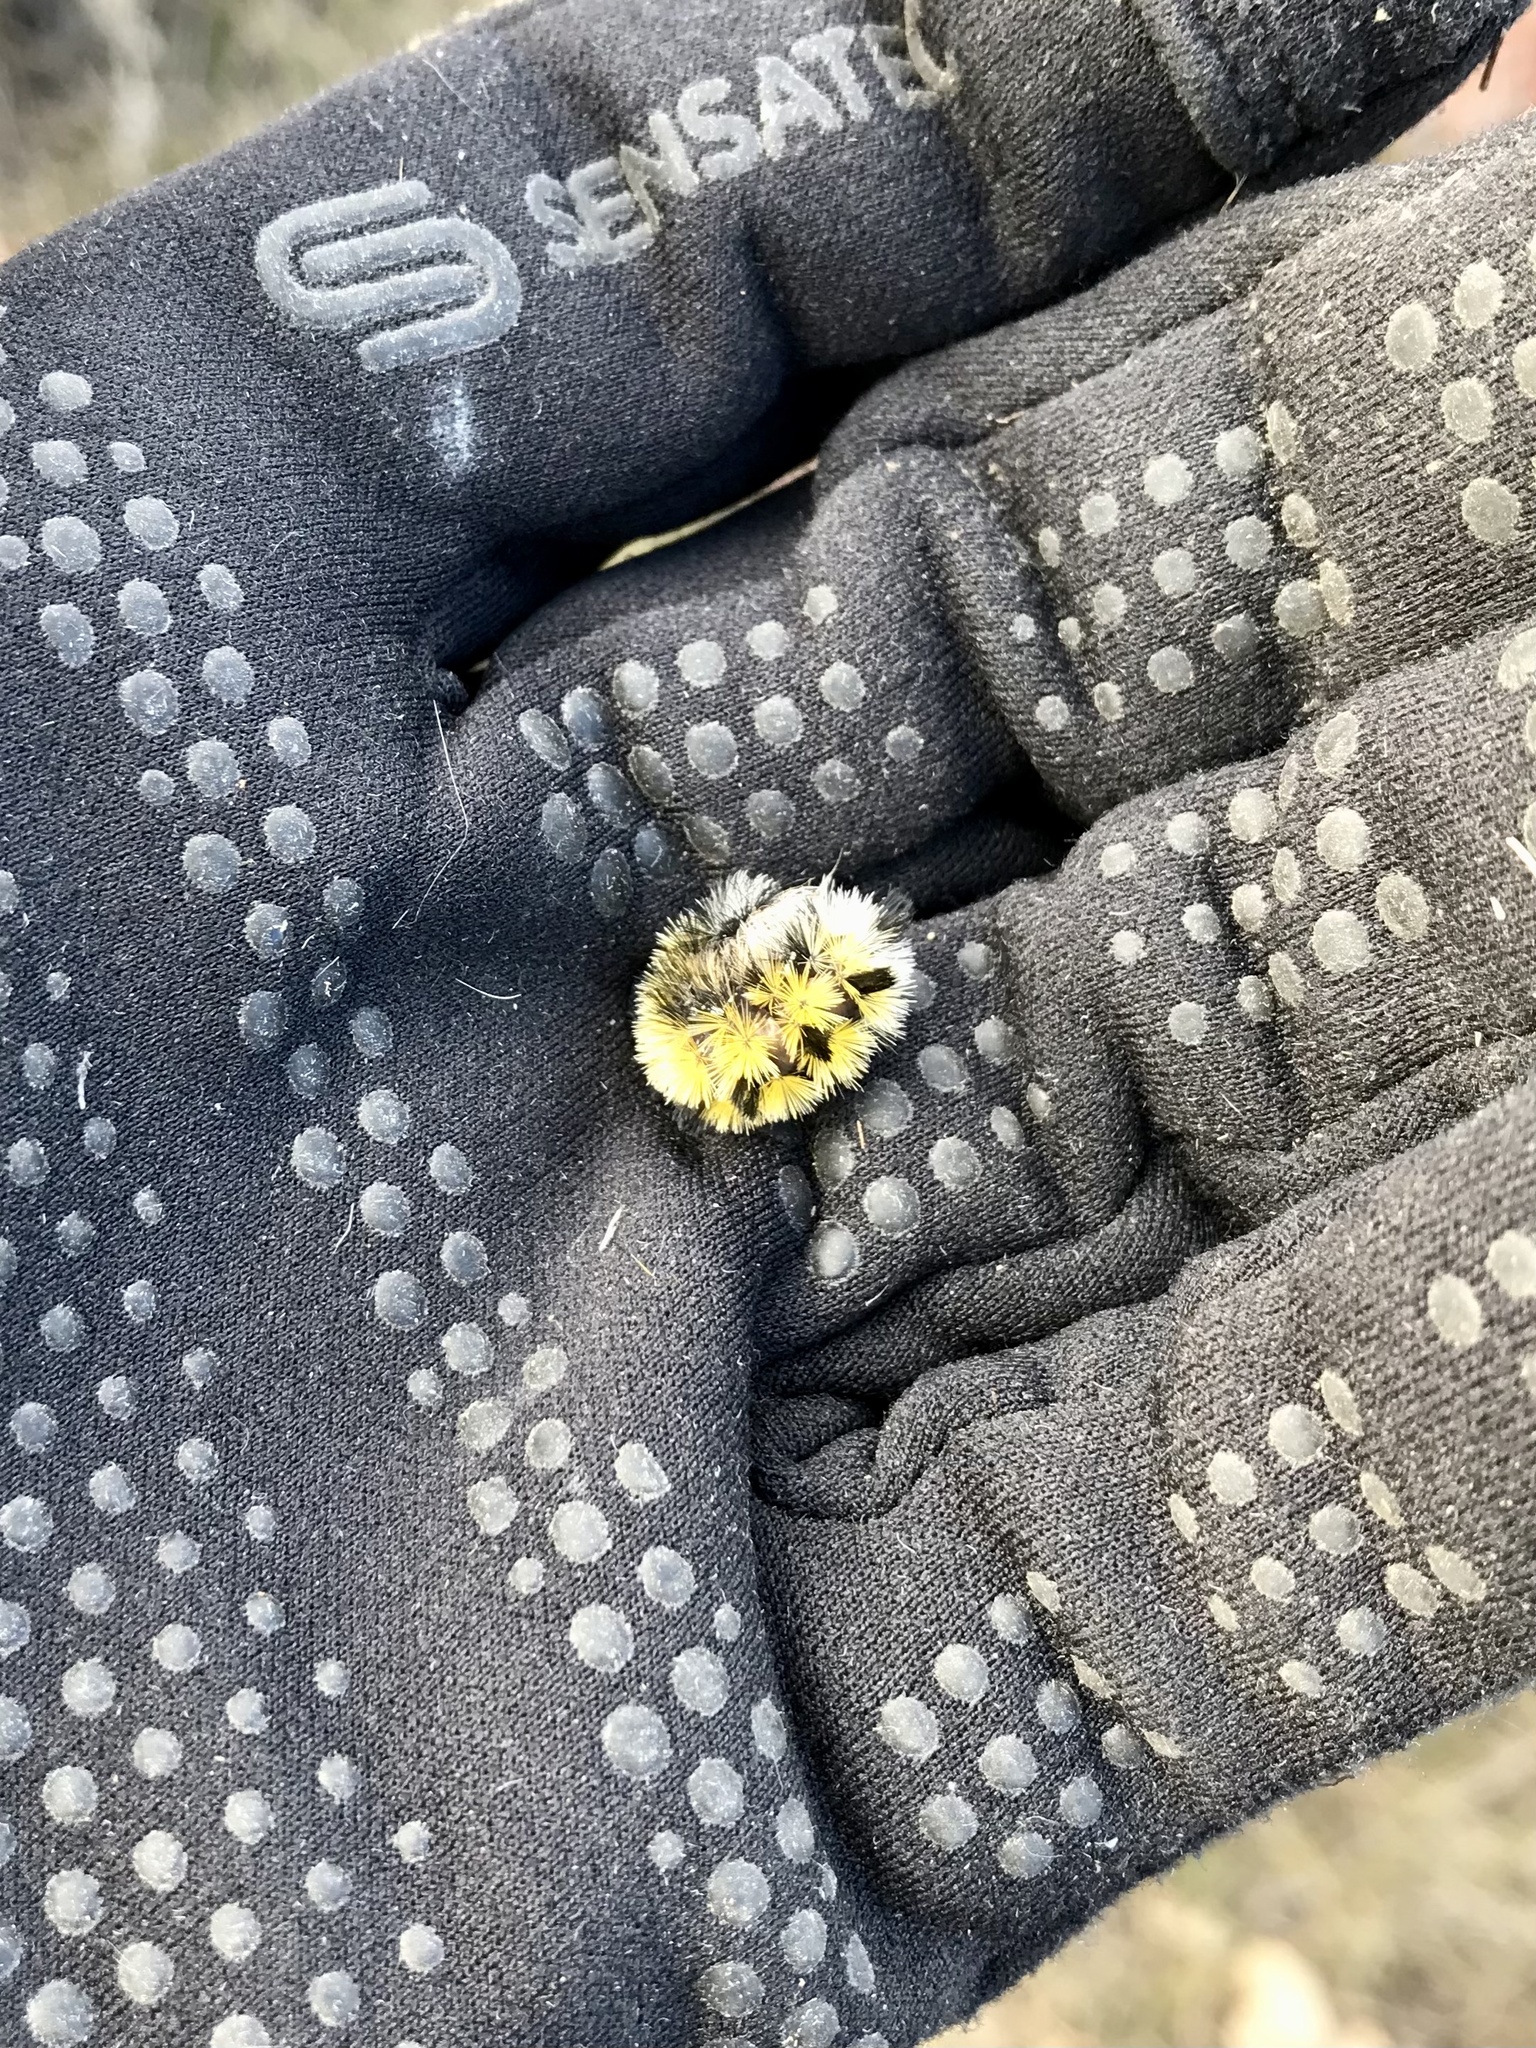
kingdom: Animalia
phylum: Arthropoda
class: Insecta
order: Lepidoptera
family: Erebidae
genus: Ctenucha
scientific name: Ctenucha virginica
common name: Virginia ctenucha moth
